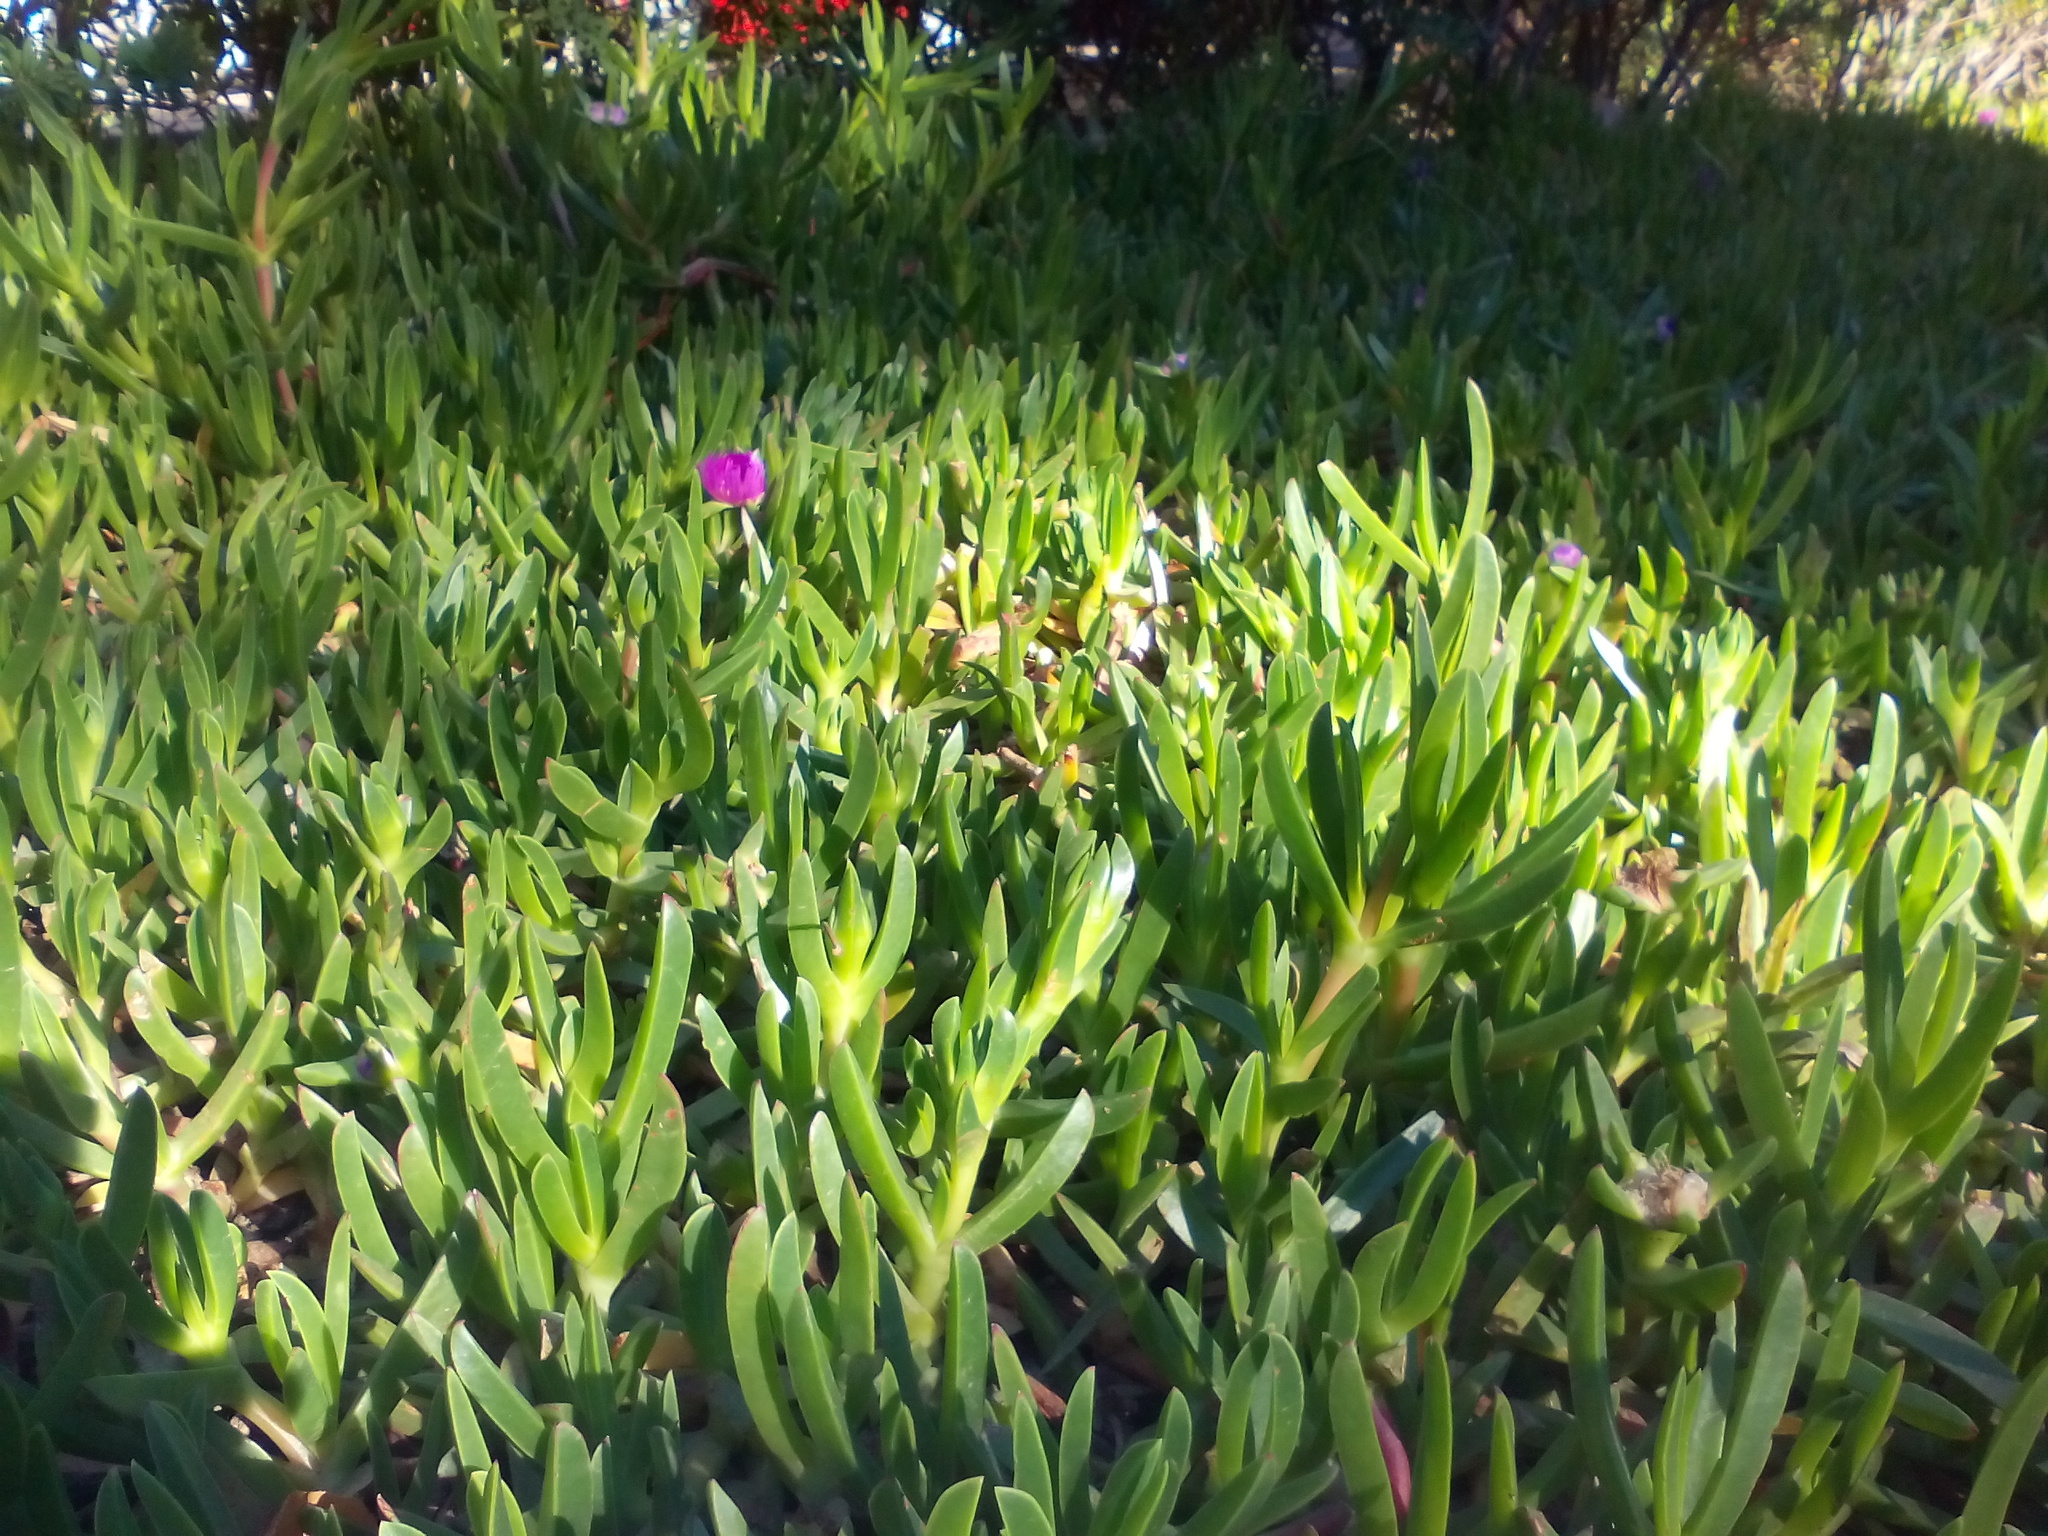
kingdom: Plantae
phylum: Tracheophyta
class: Magnoliopsida
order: Caryophyllales
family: Aizoaceae
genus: Carpobrotus
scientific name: Carpobrotus acinaciformis
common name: Sally-my-handsome
